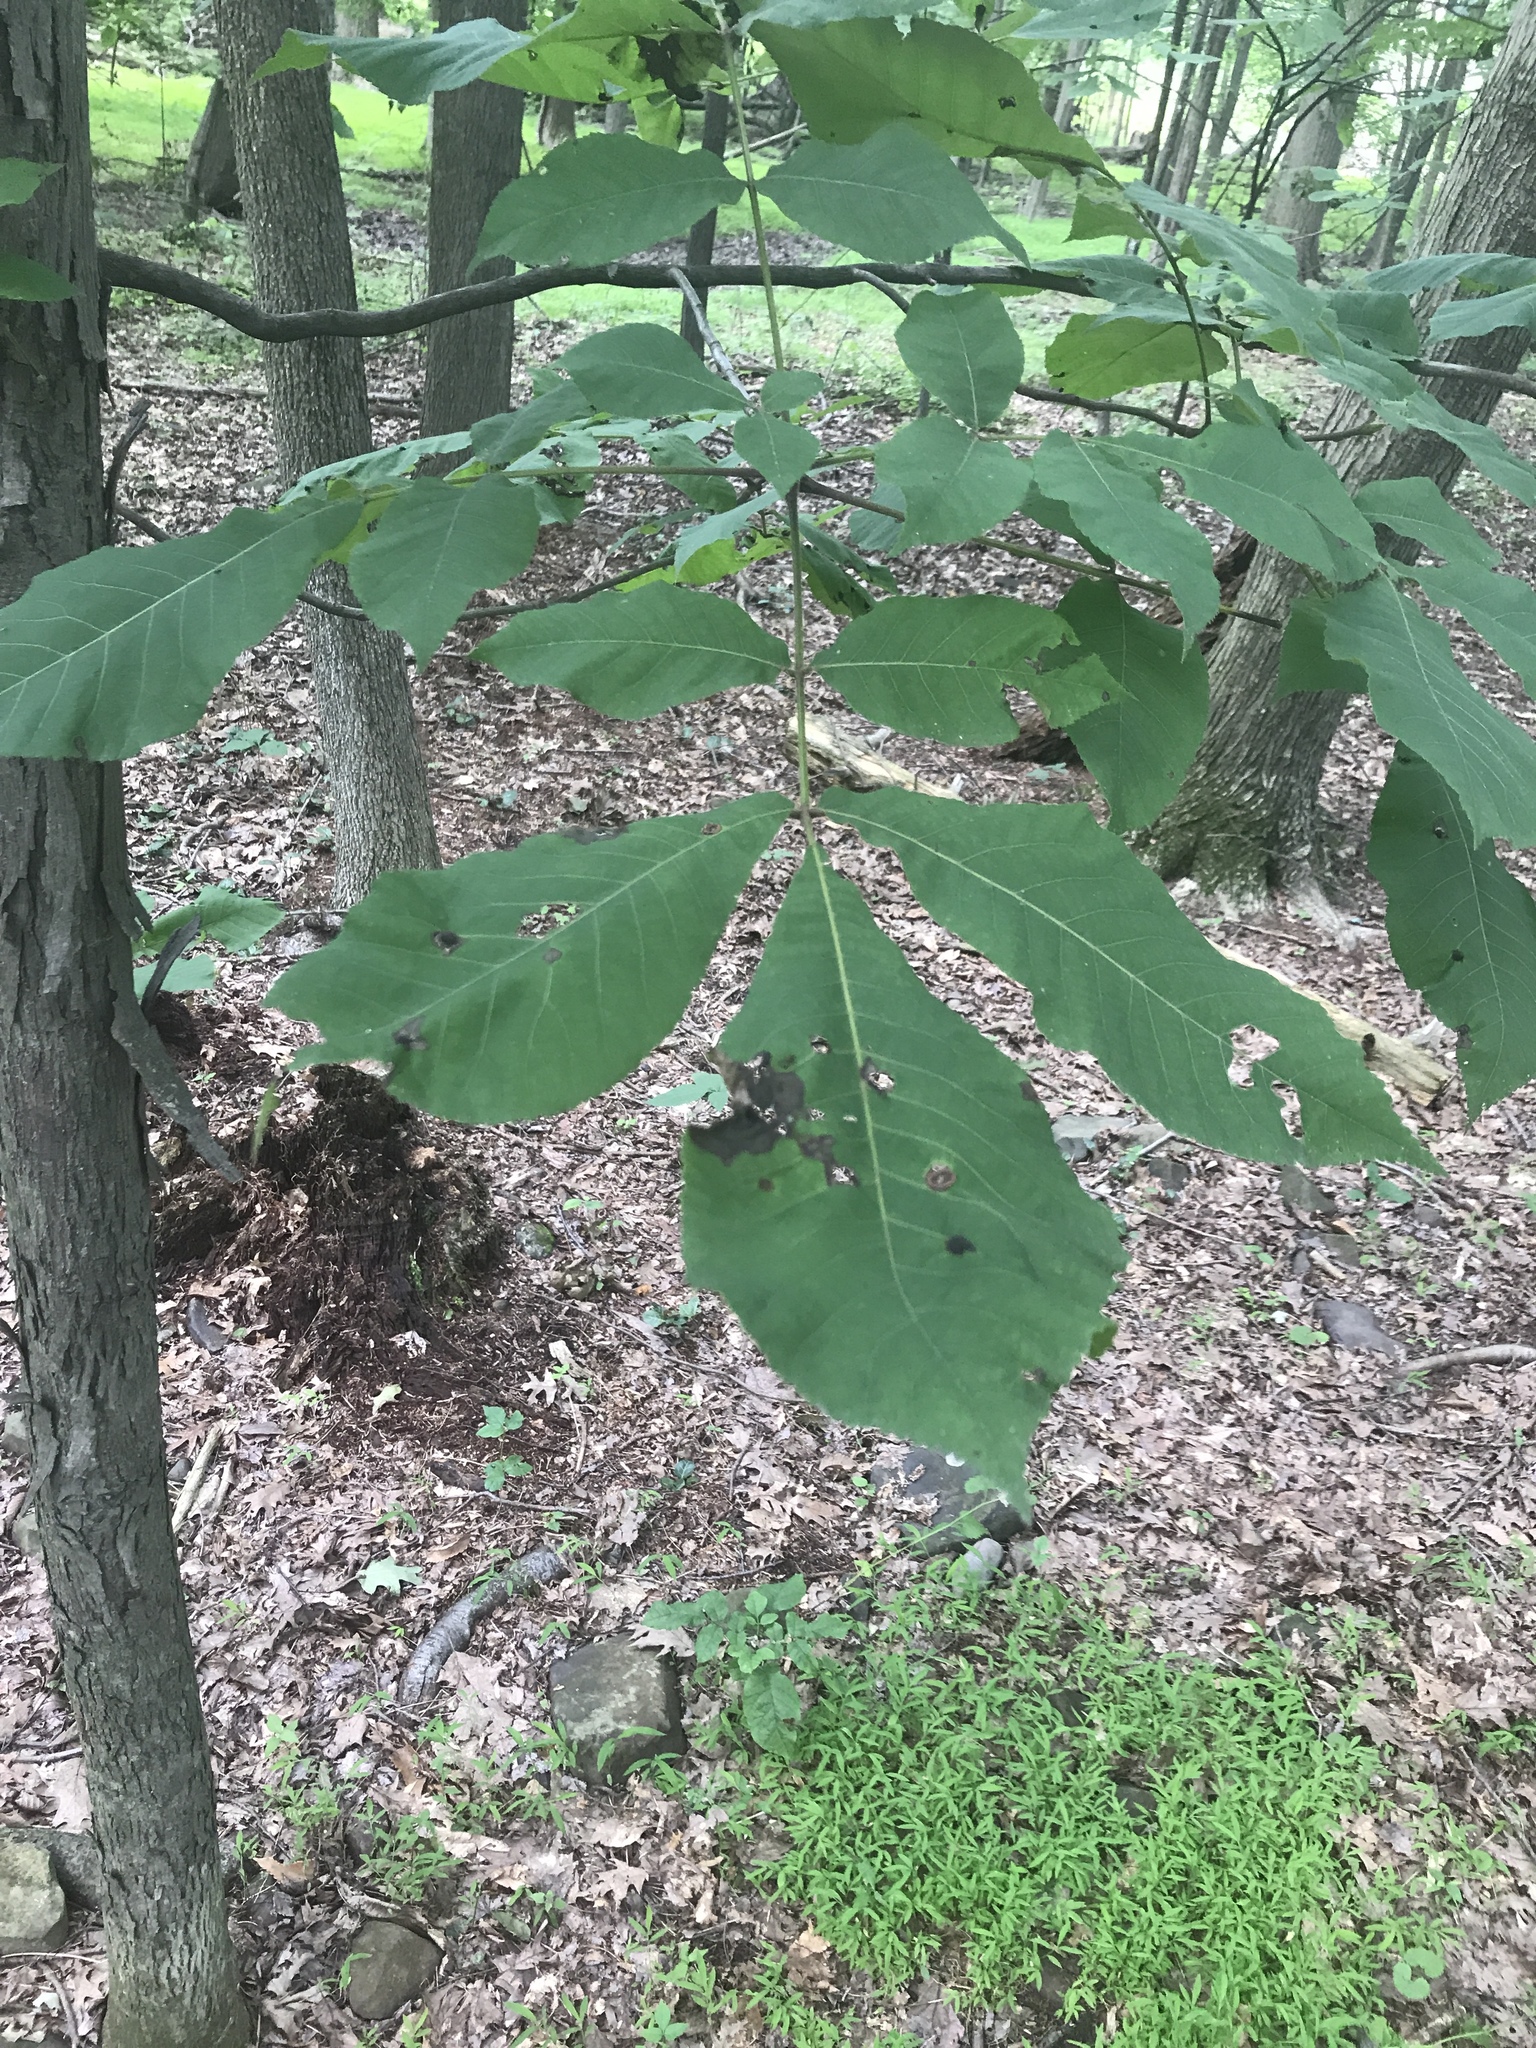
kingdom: Plantae
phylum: Tracheophyta
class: Magnoliopsida
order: Fagales
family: Juglandaceae
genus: Carya
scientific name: Carya ovata
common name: Shagbark hickory
